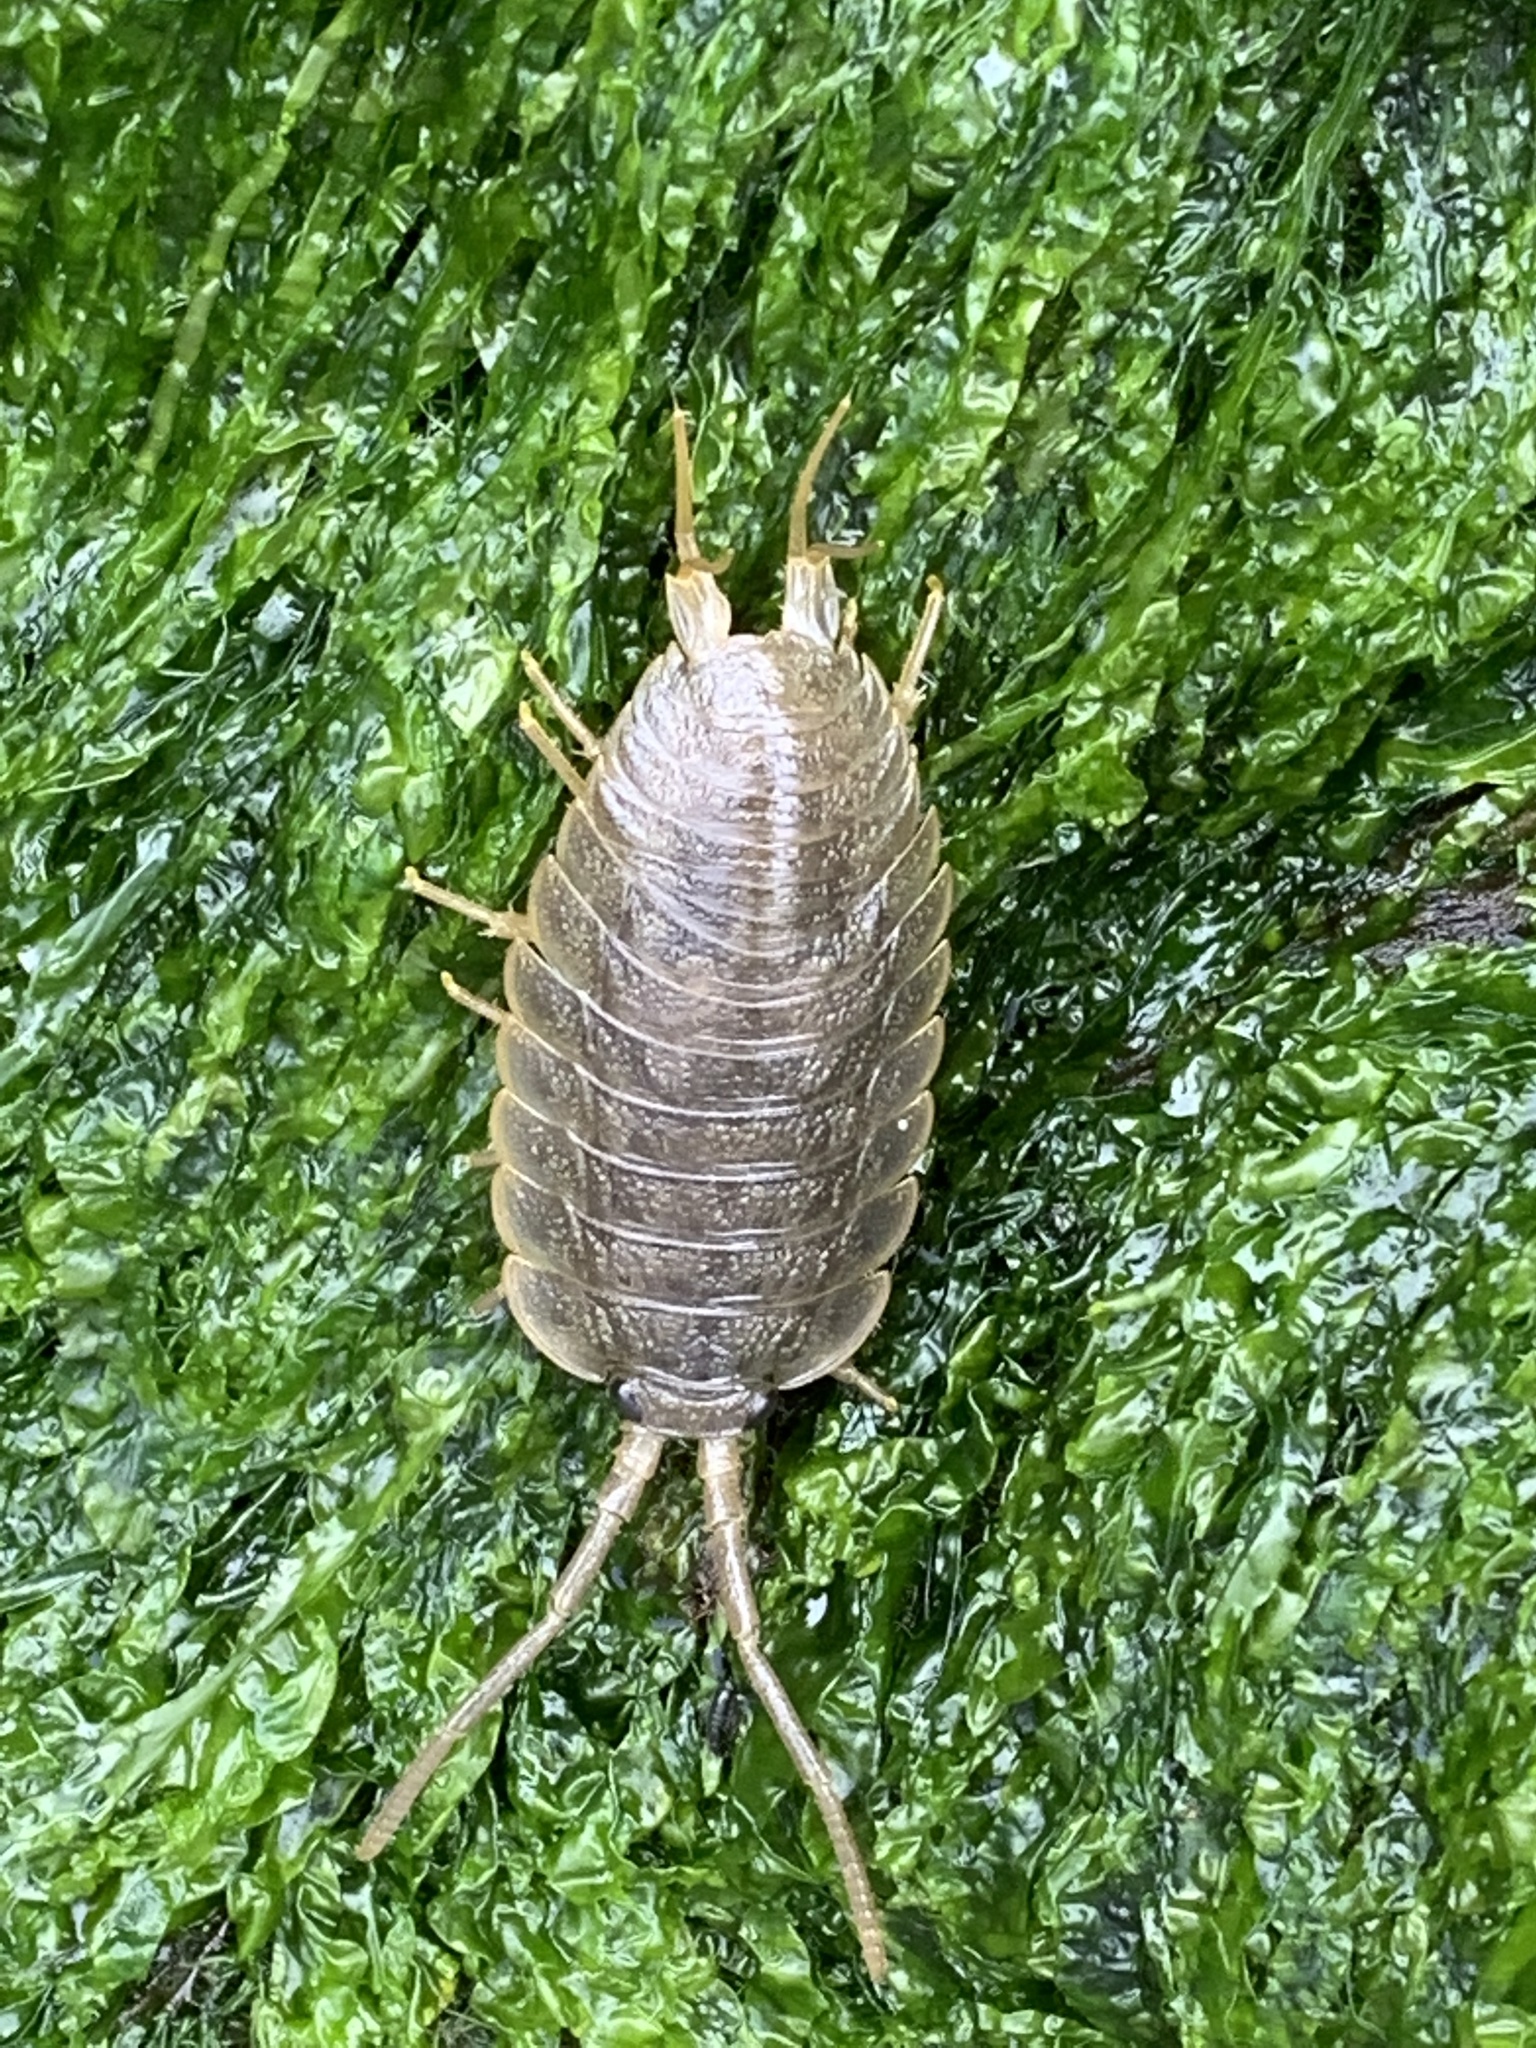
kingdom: Animalia
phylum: Arthropoda
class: Malacostraca
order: Isopoda
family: Ligiidae
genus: Ligia
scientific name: Ligia oceanica
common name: Sea slater
